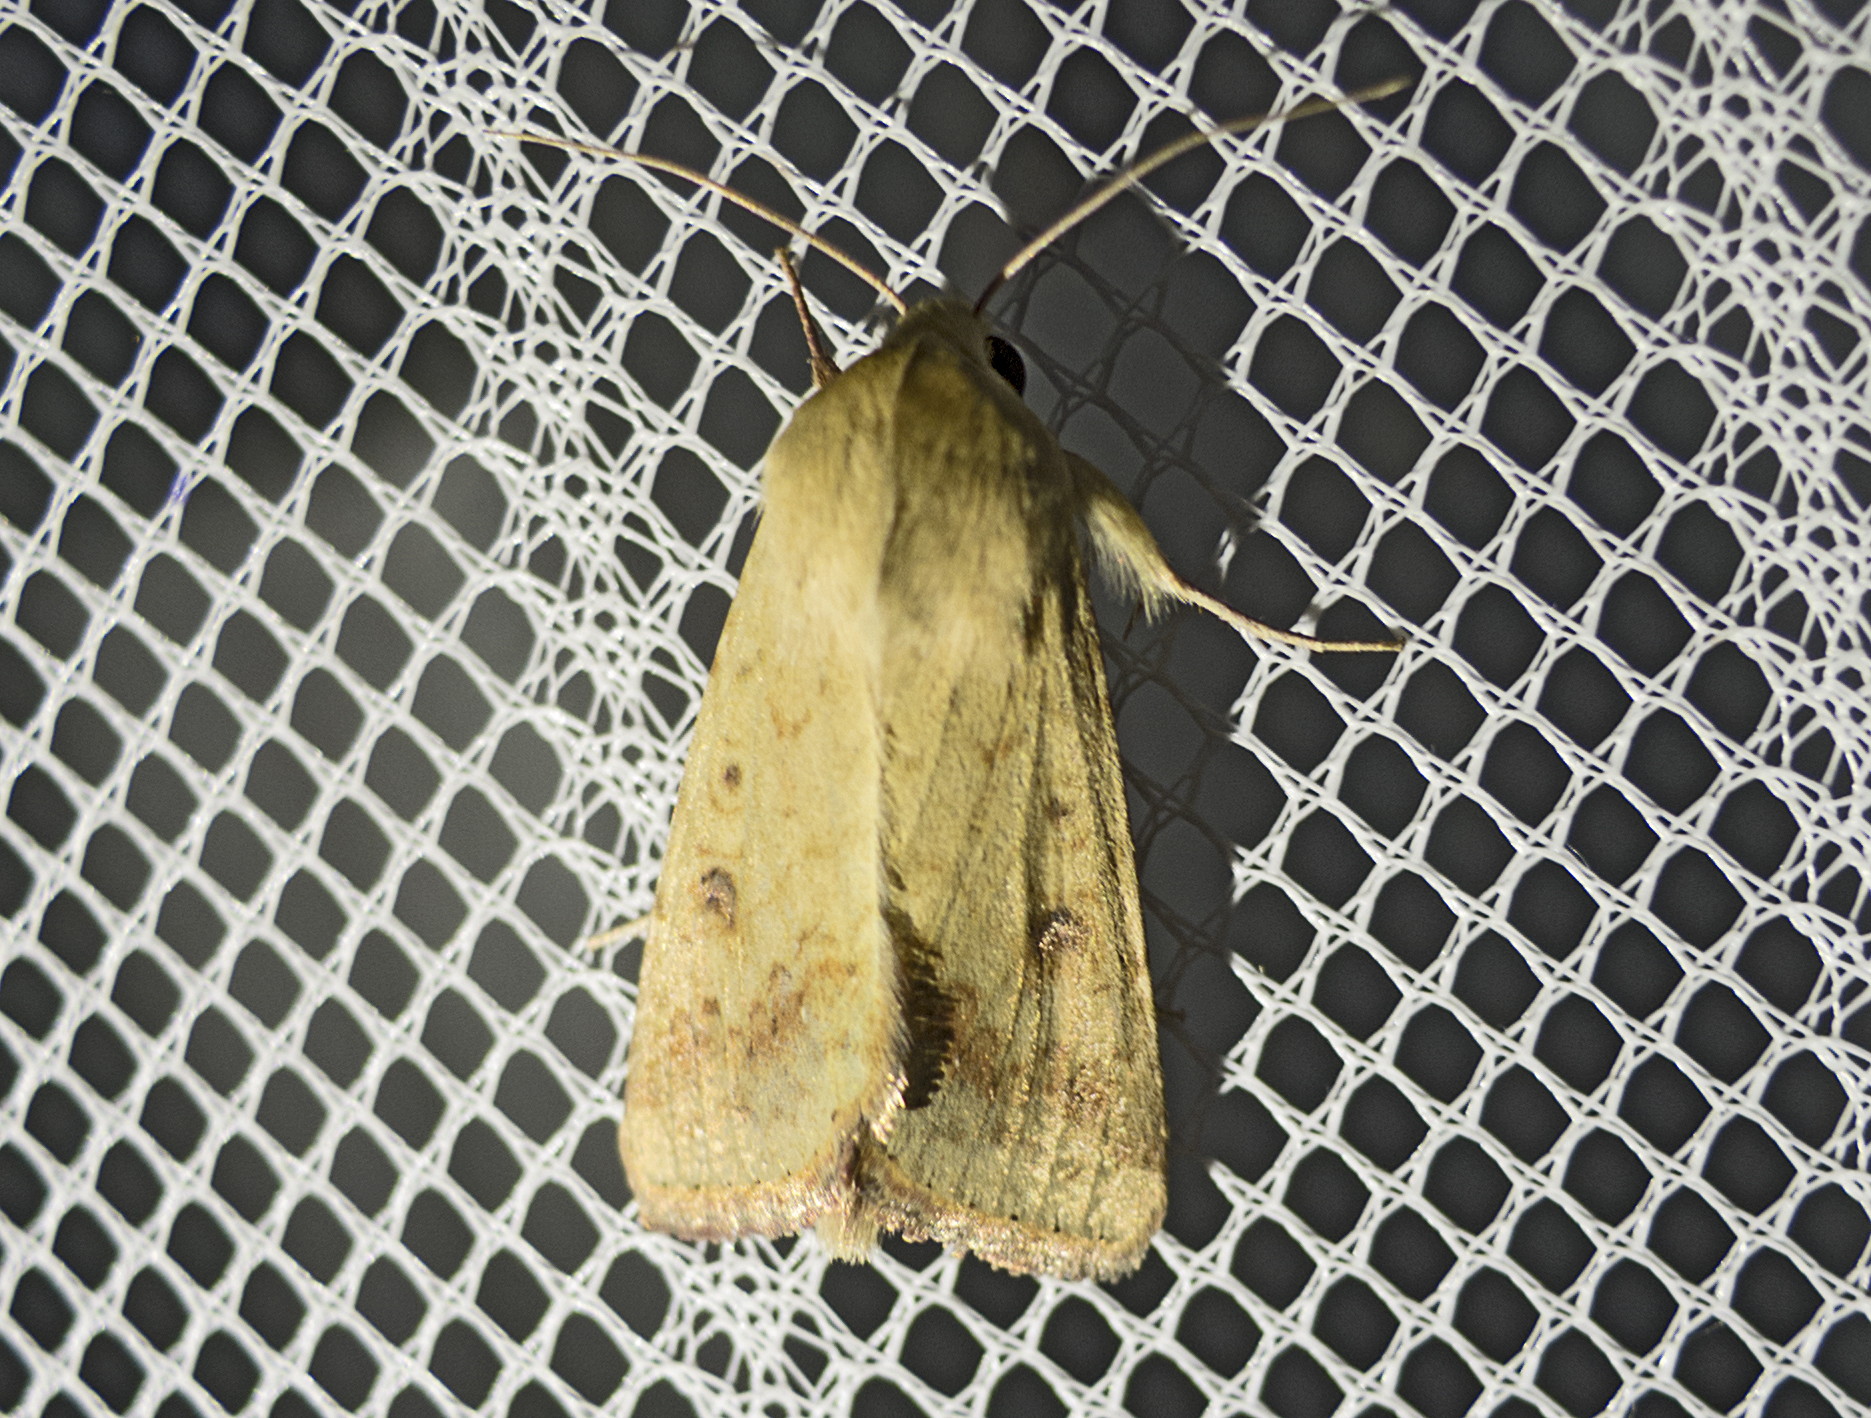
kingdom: Animalia
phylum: Arthropoda
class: Insecta
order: Lepidoptera
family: Noctuidae
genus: Helicoverpa
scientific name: Helicoverpa armigera
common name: Cotton bollworm
